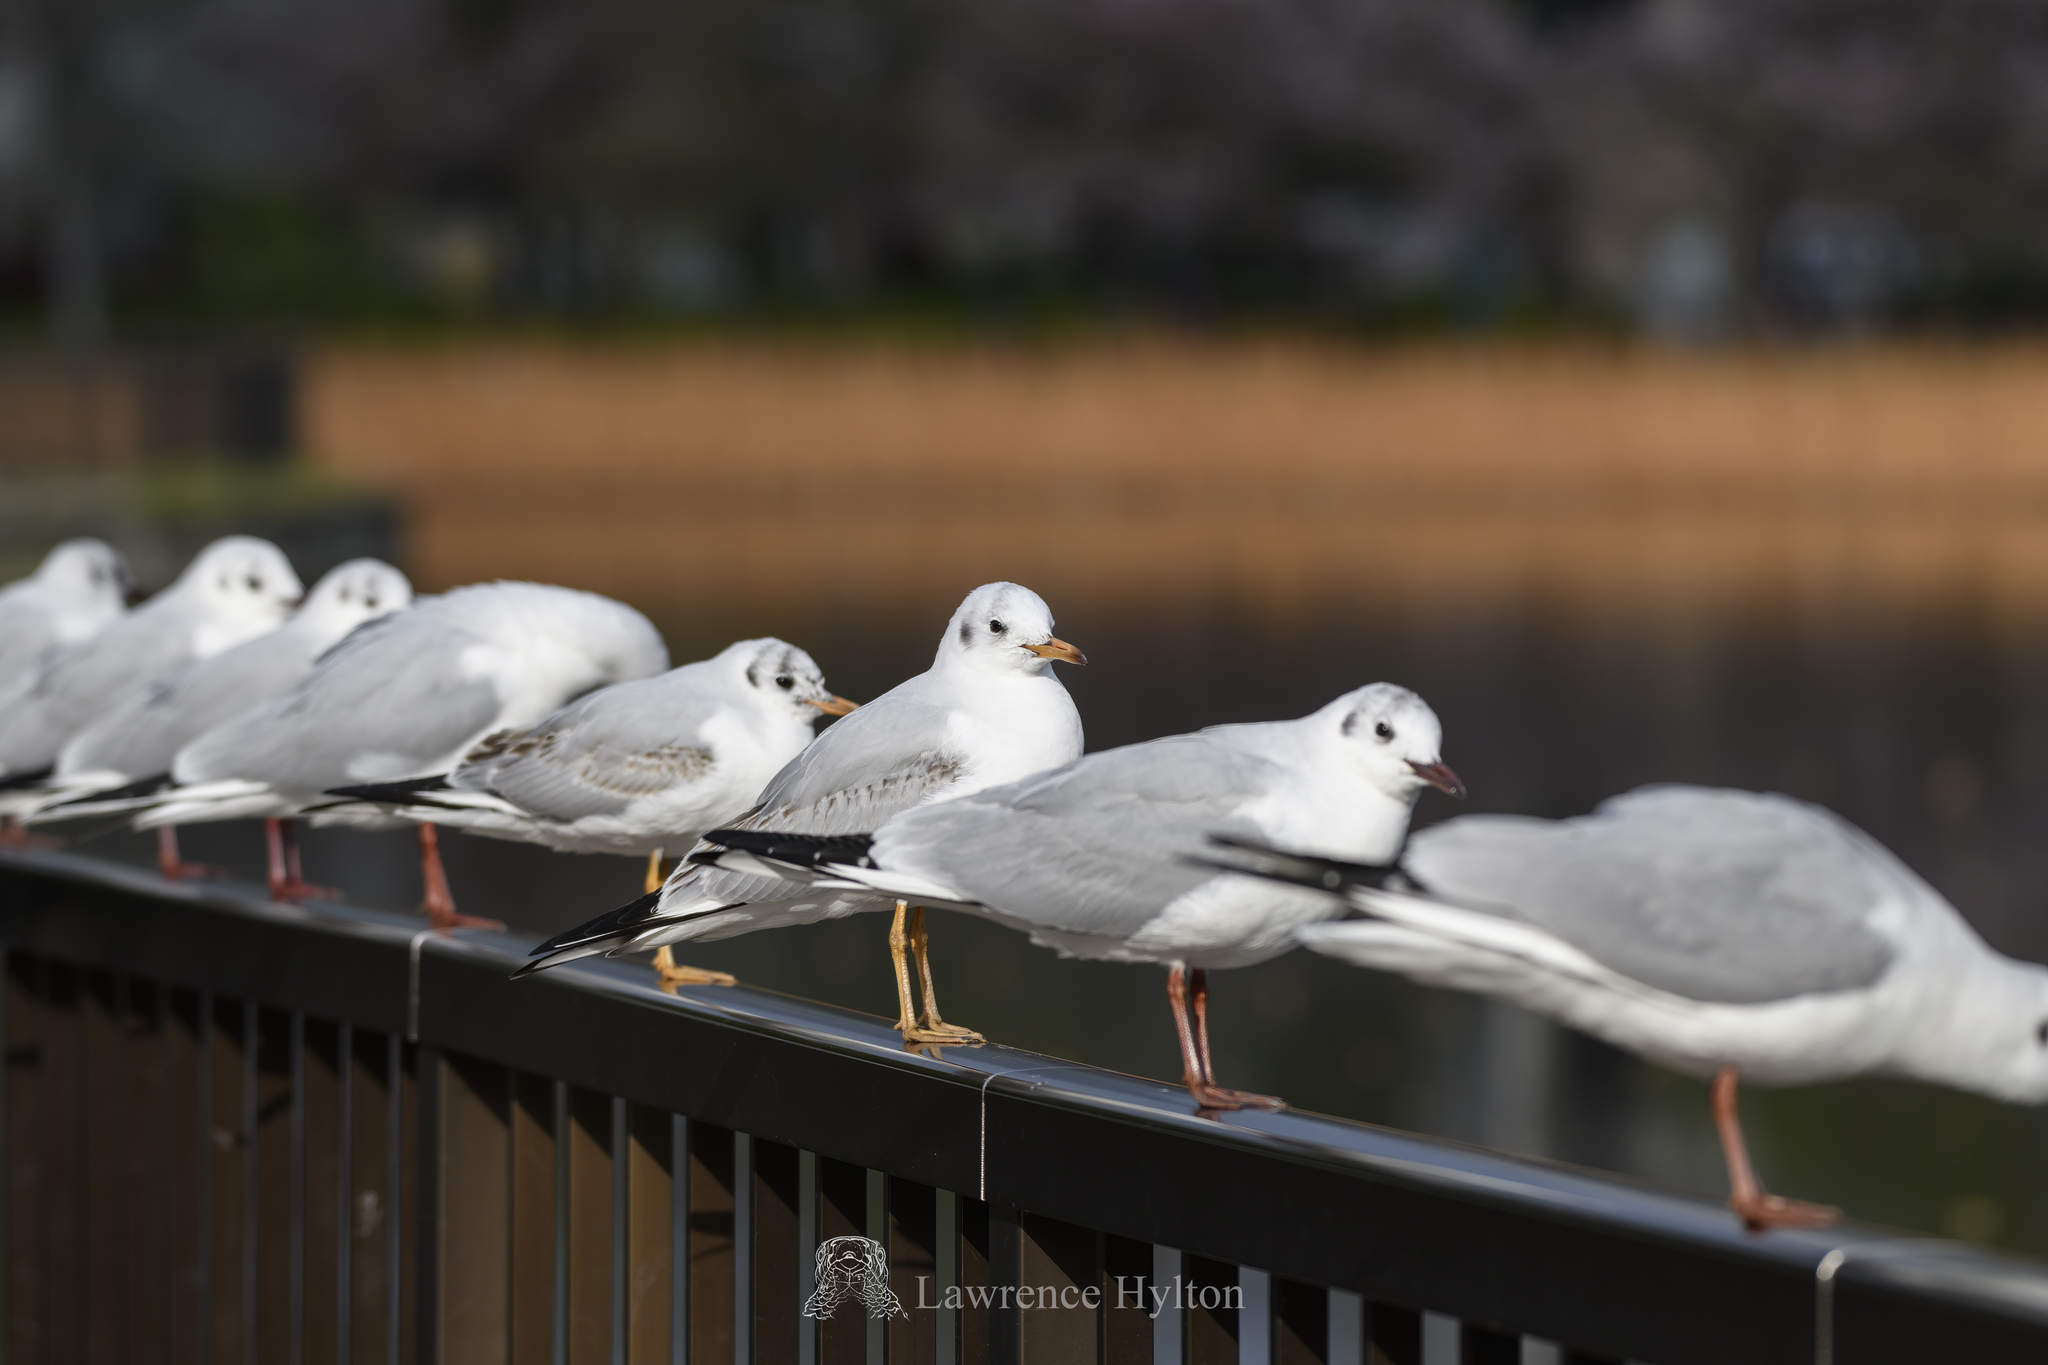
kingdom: Animalia
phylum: Chordata
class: Aves
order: Charadriiformes
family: Laridae
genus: Chroicocephalus
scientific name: Chroicocephalus ridibundus
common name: Black-headed gull
